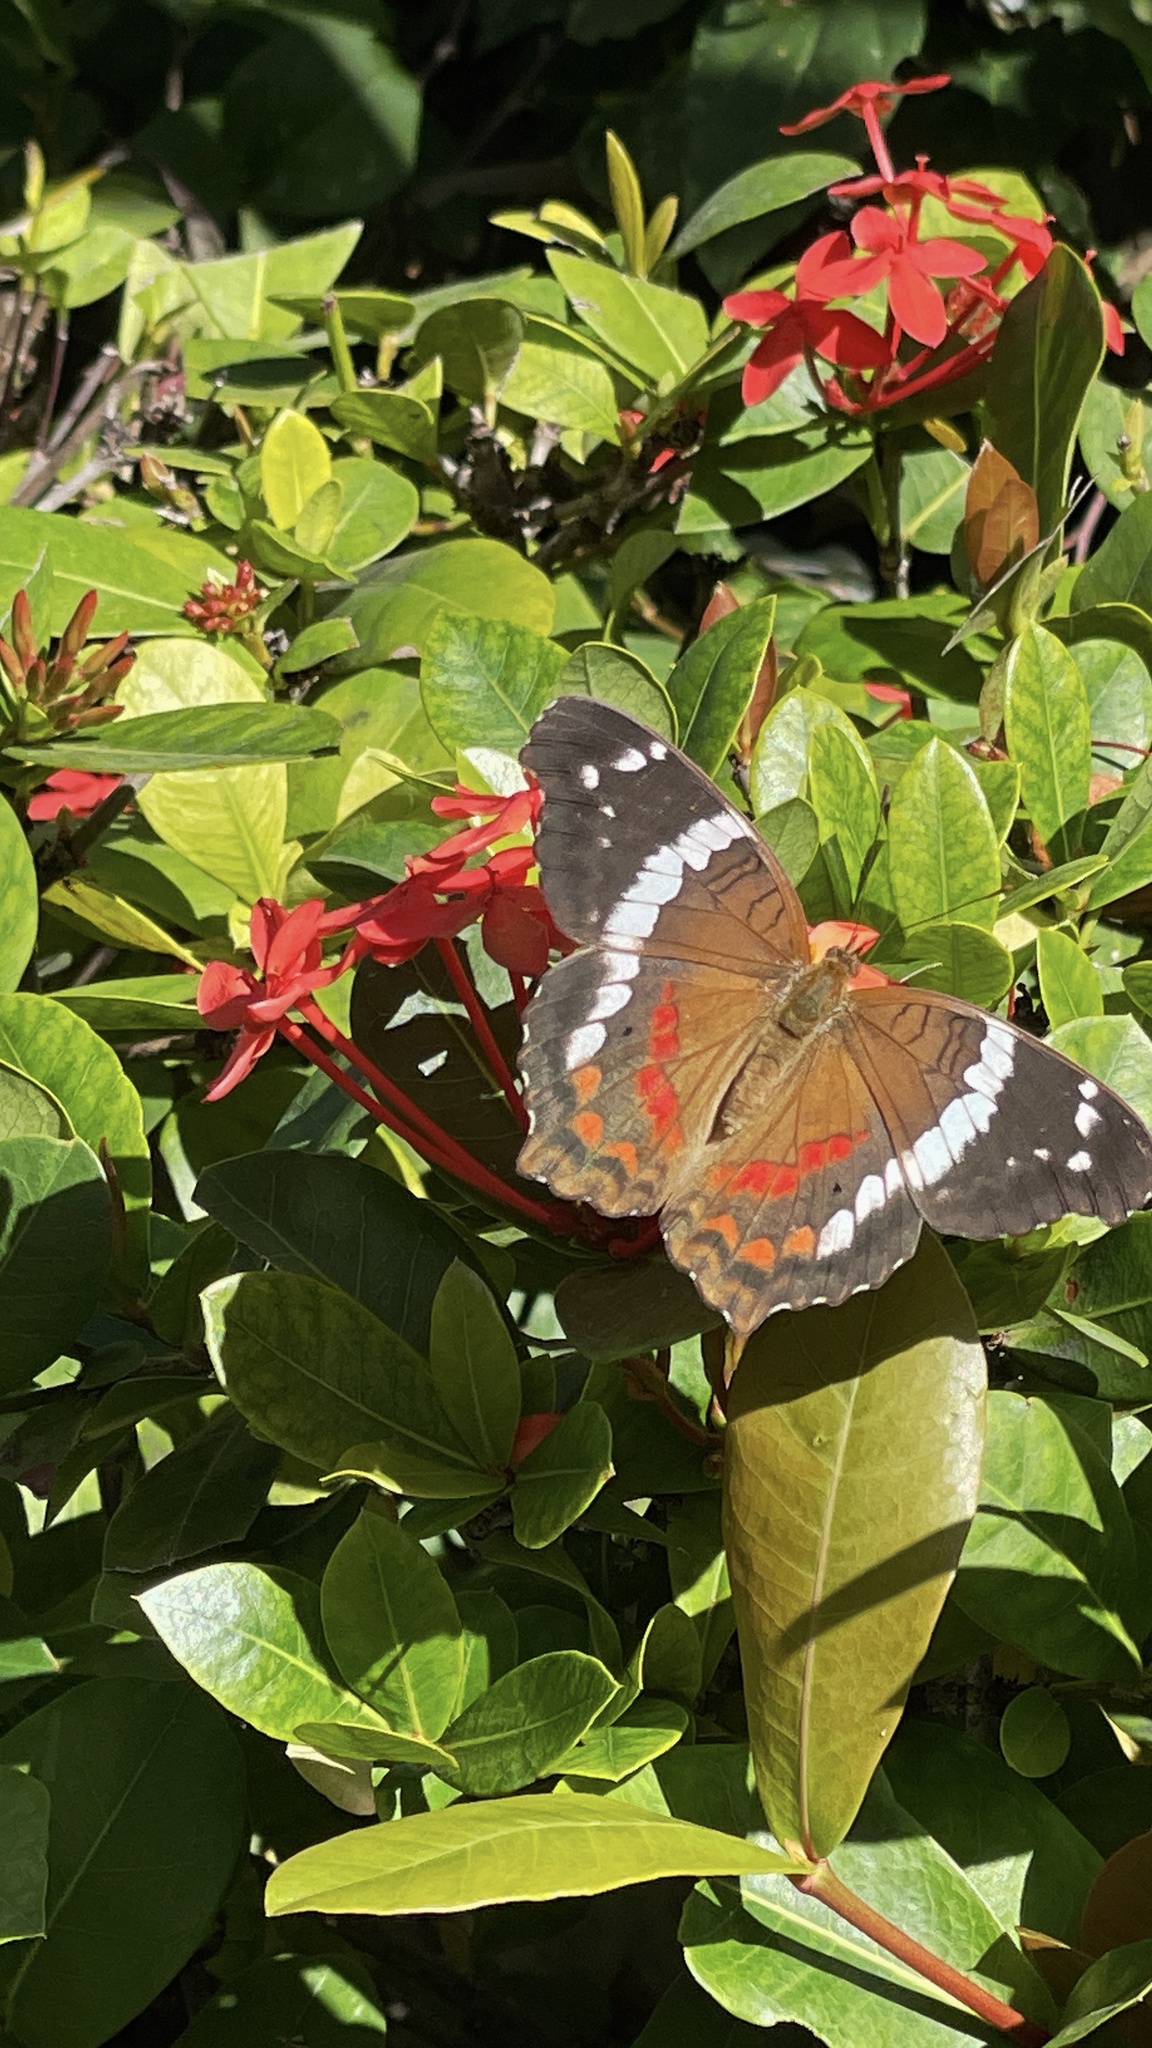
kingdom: Animalia
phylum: Arthropoda
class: Insecta
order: Lepidoptera
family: Nymphalidae
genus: Anartia
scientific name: Anartia fatima
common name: Banded peacock
